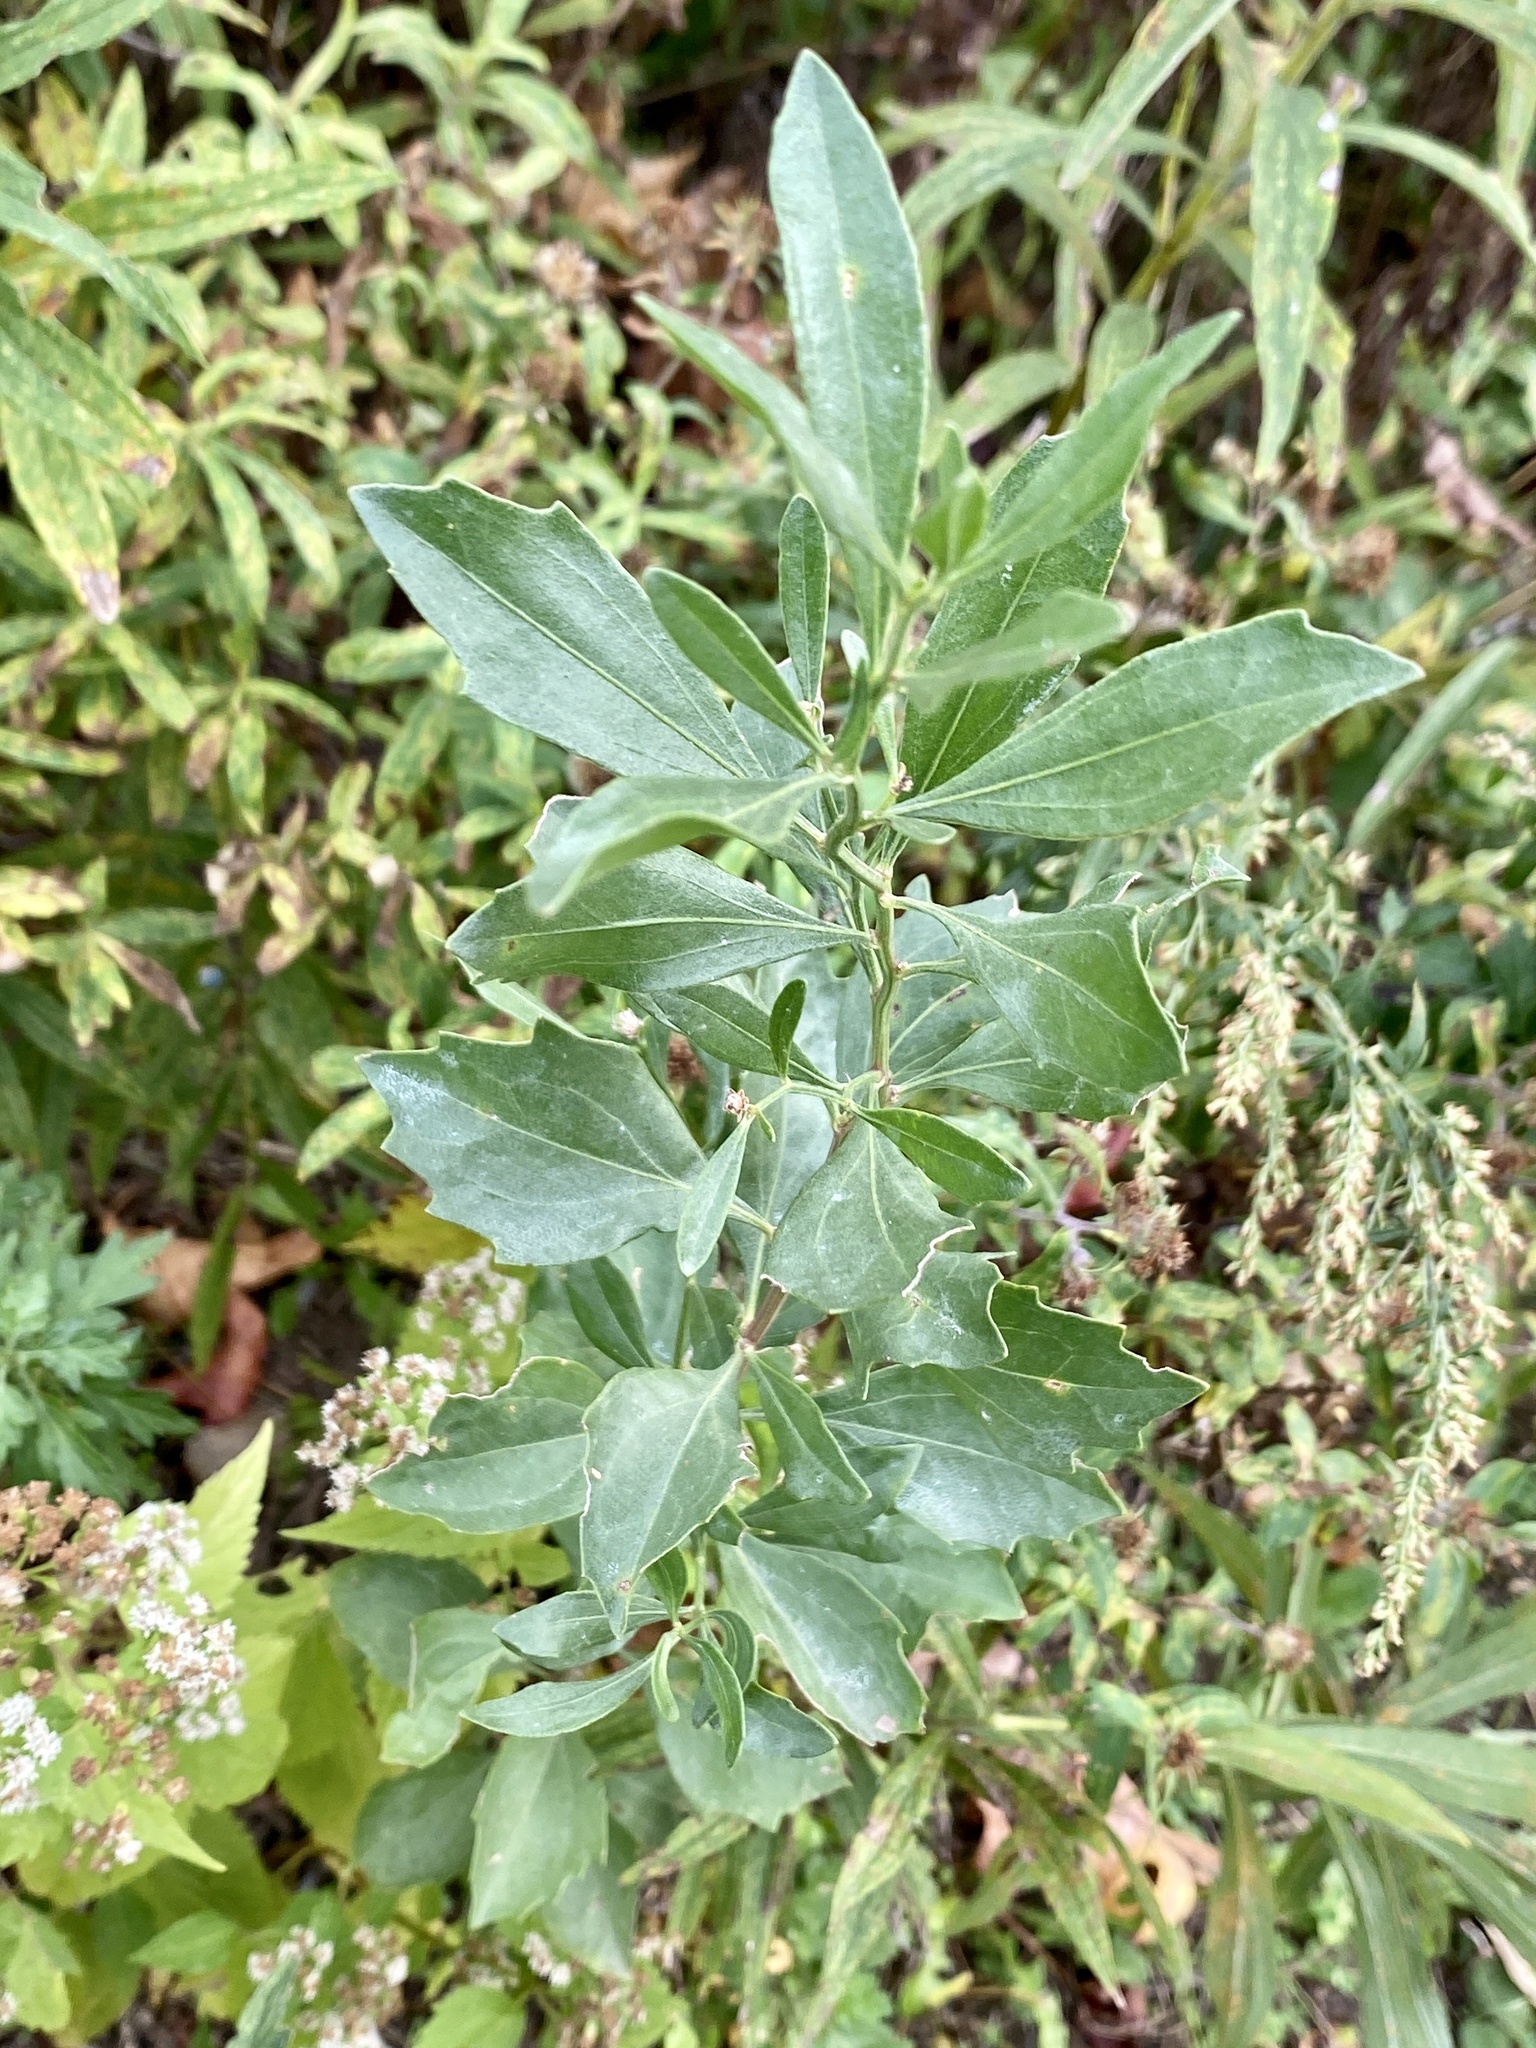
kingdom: Plantae
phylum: Tracheophyta
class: Magnoliopsida
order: Asterales
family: Asteraceae
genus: Baccharis
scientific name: Baccharis halimifolia
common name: Eastern baccharis
